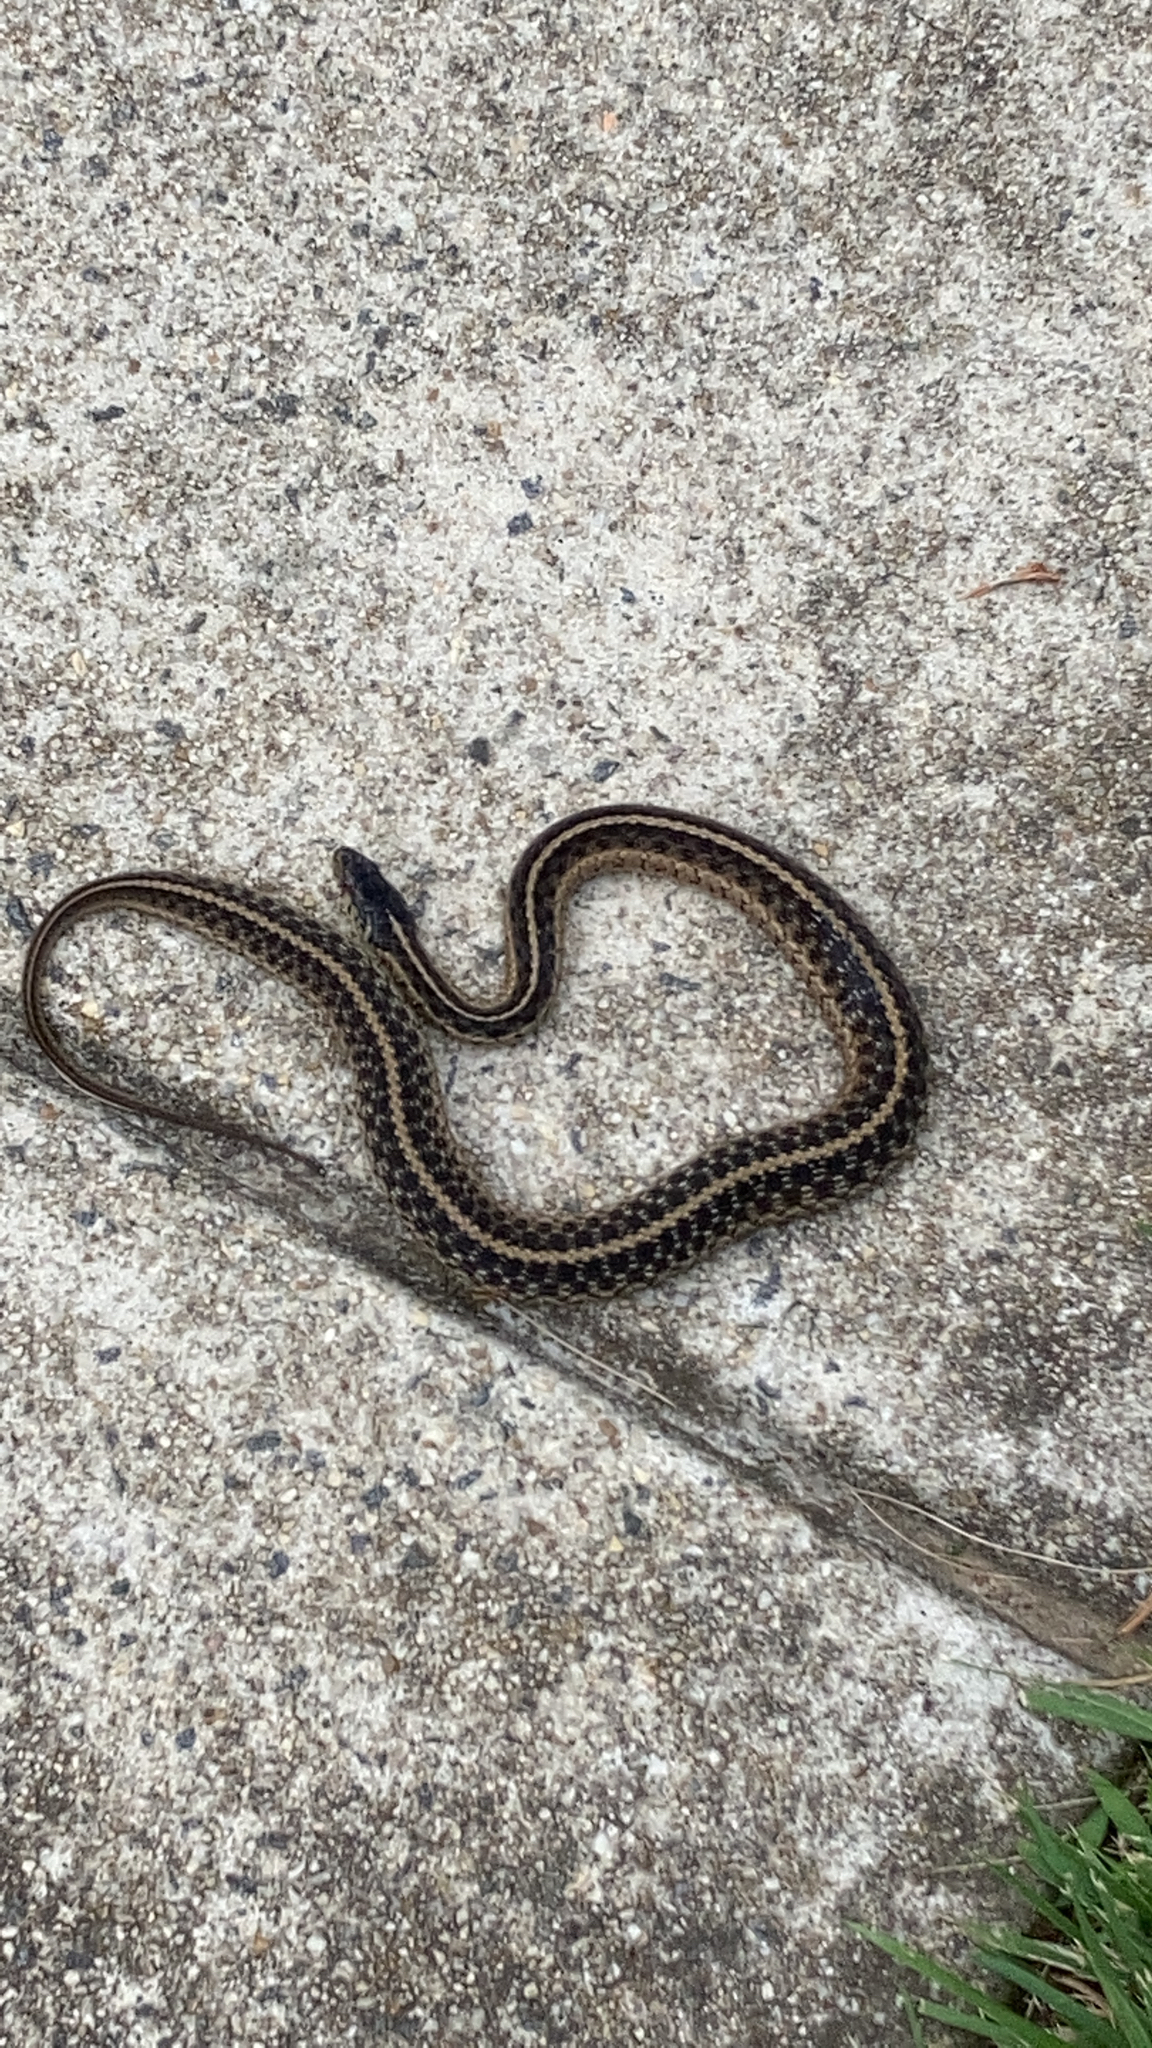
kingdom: Animalia
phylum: Chordata
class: Squamata
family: Colubridae
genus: Thamnophis
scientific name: Thamnophis sirtalis
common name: Common garter snake
